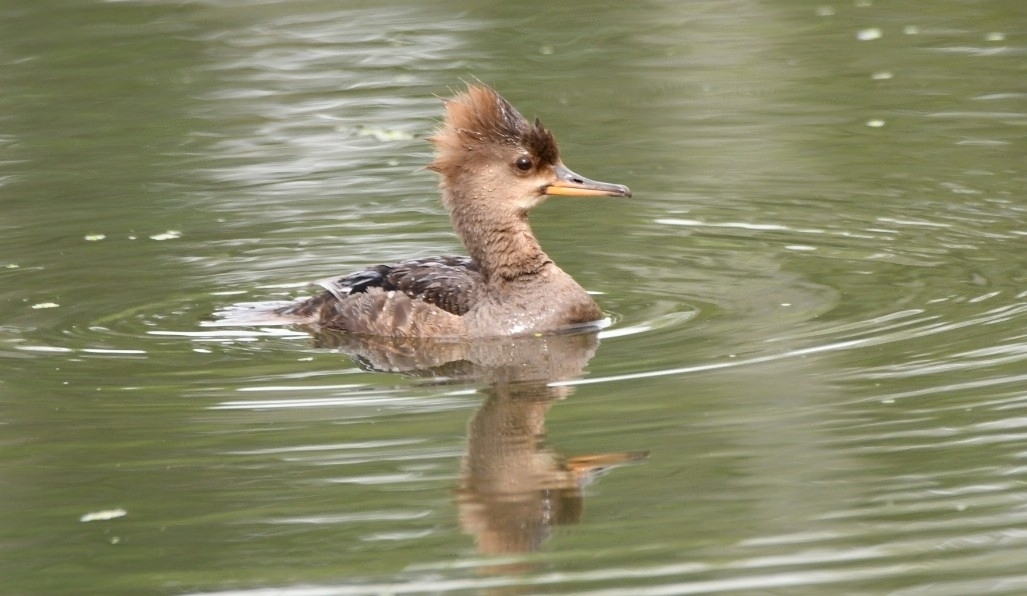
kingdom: Animalia
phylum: Chordata
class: Aves
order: Anseriformes
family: Anatidae
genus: Lophodytes
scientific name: Lophodytes cucullatus
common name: Hooded merganser
